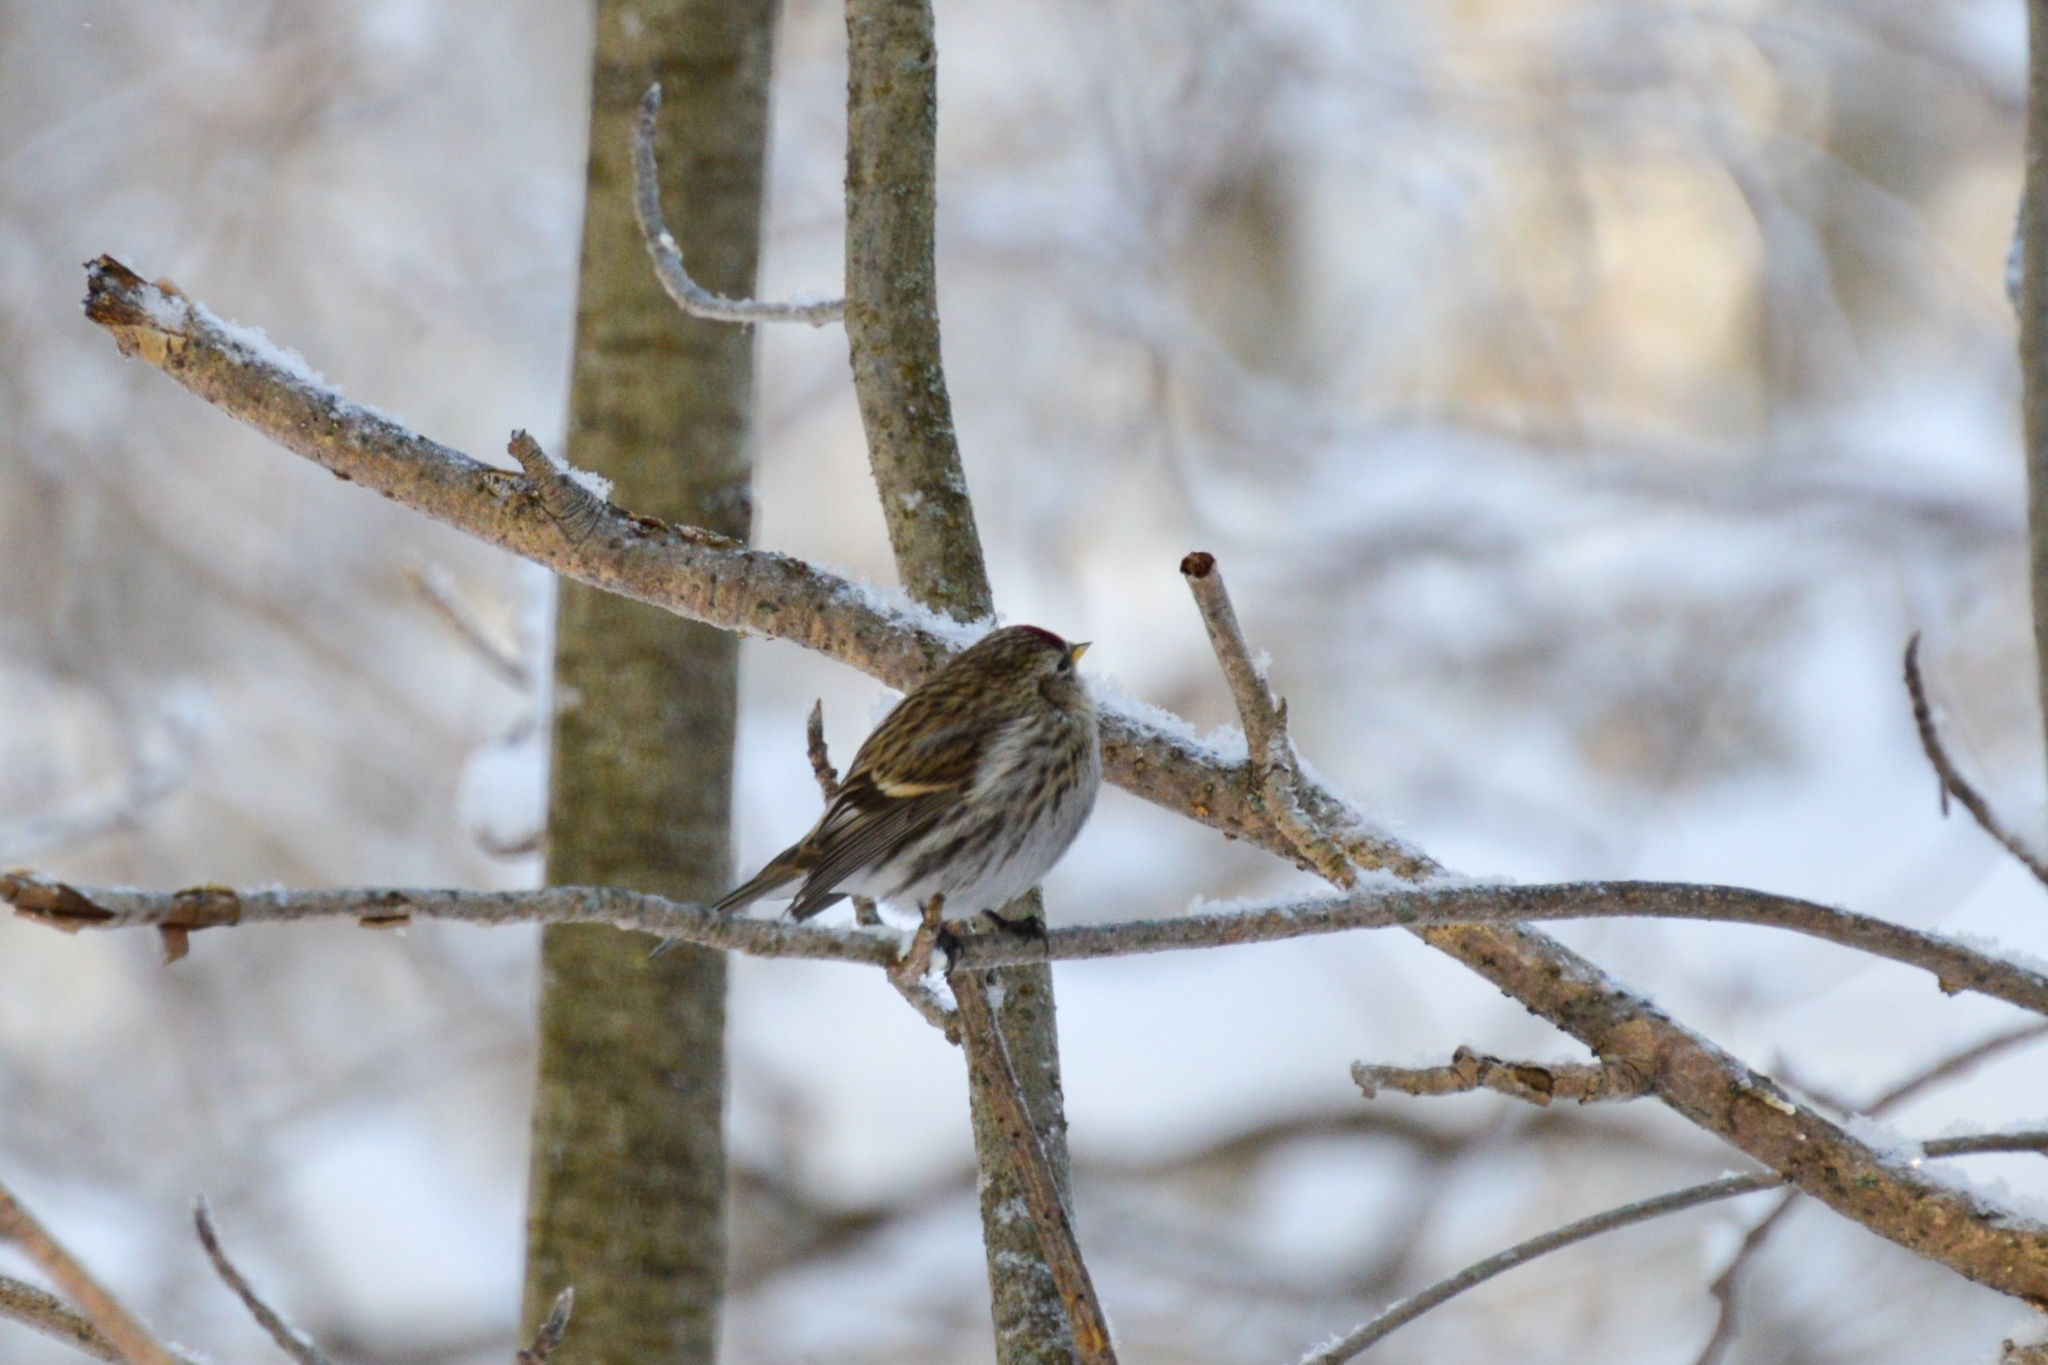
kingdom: Animalia
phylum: Chordata
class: Aves
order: Passeriformes
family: Fringillidae
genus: Acanthis
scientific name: Acanthis flammea
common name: Common redpoll
